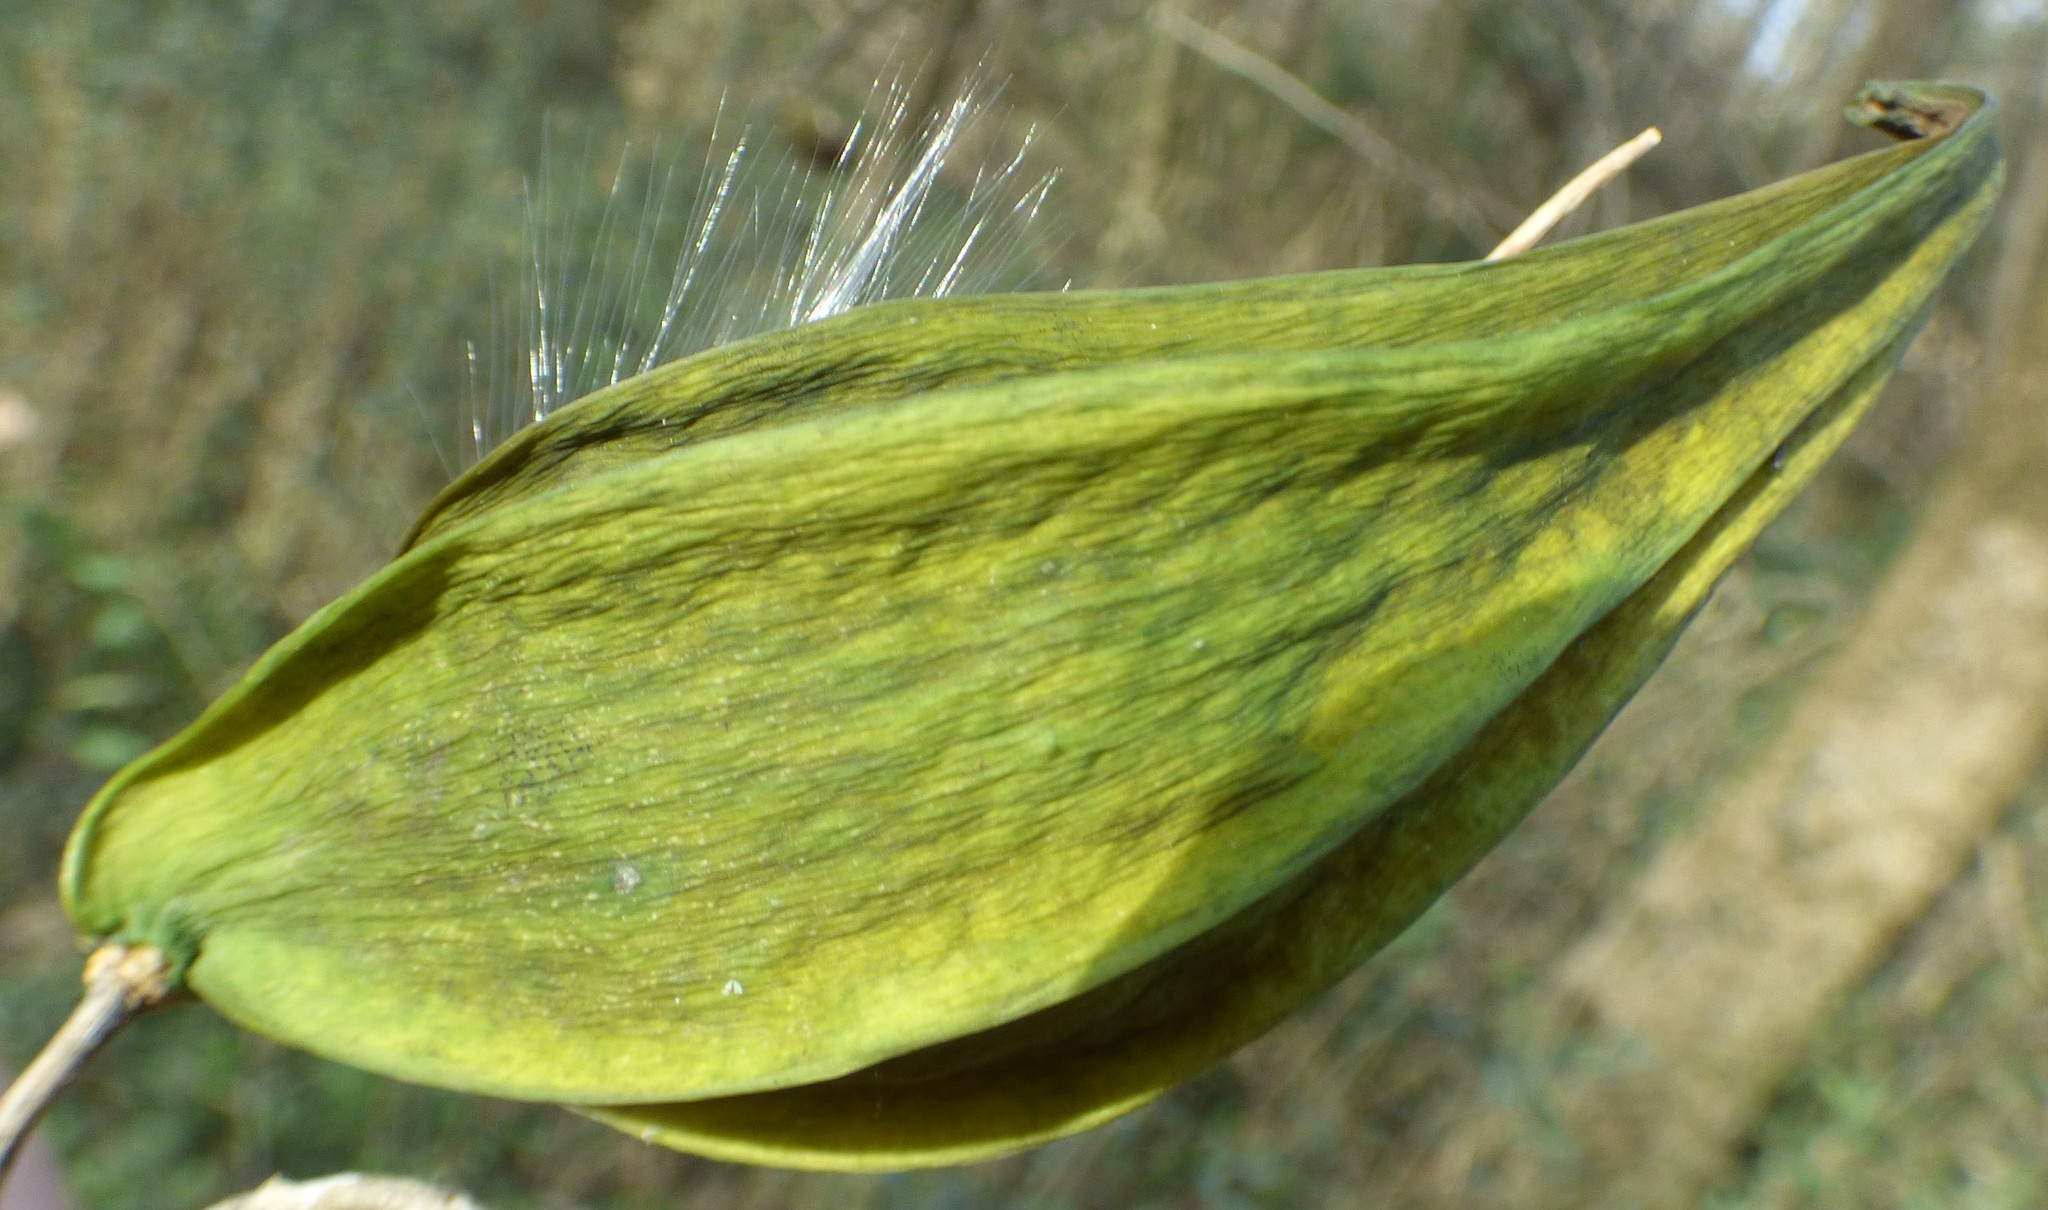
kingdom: Plantae
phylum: Tracheophyta
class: Magnoliopsida
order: Gentianales
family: Apocynaceae
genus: Gonolobus
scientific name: Gonolobus suberosus
